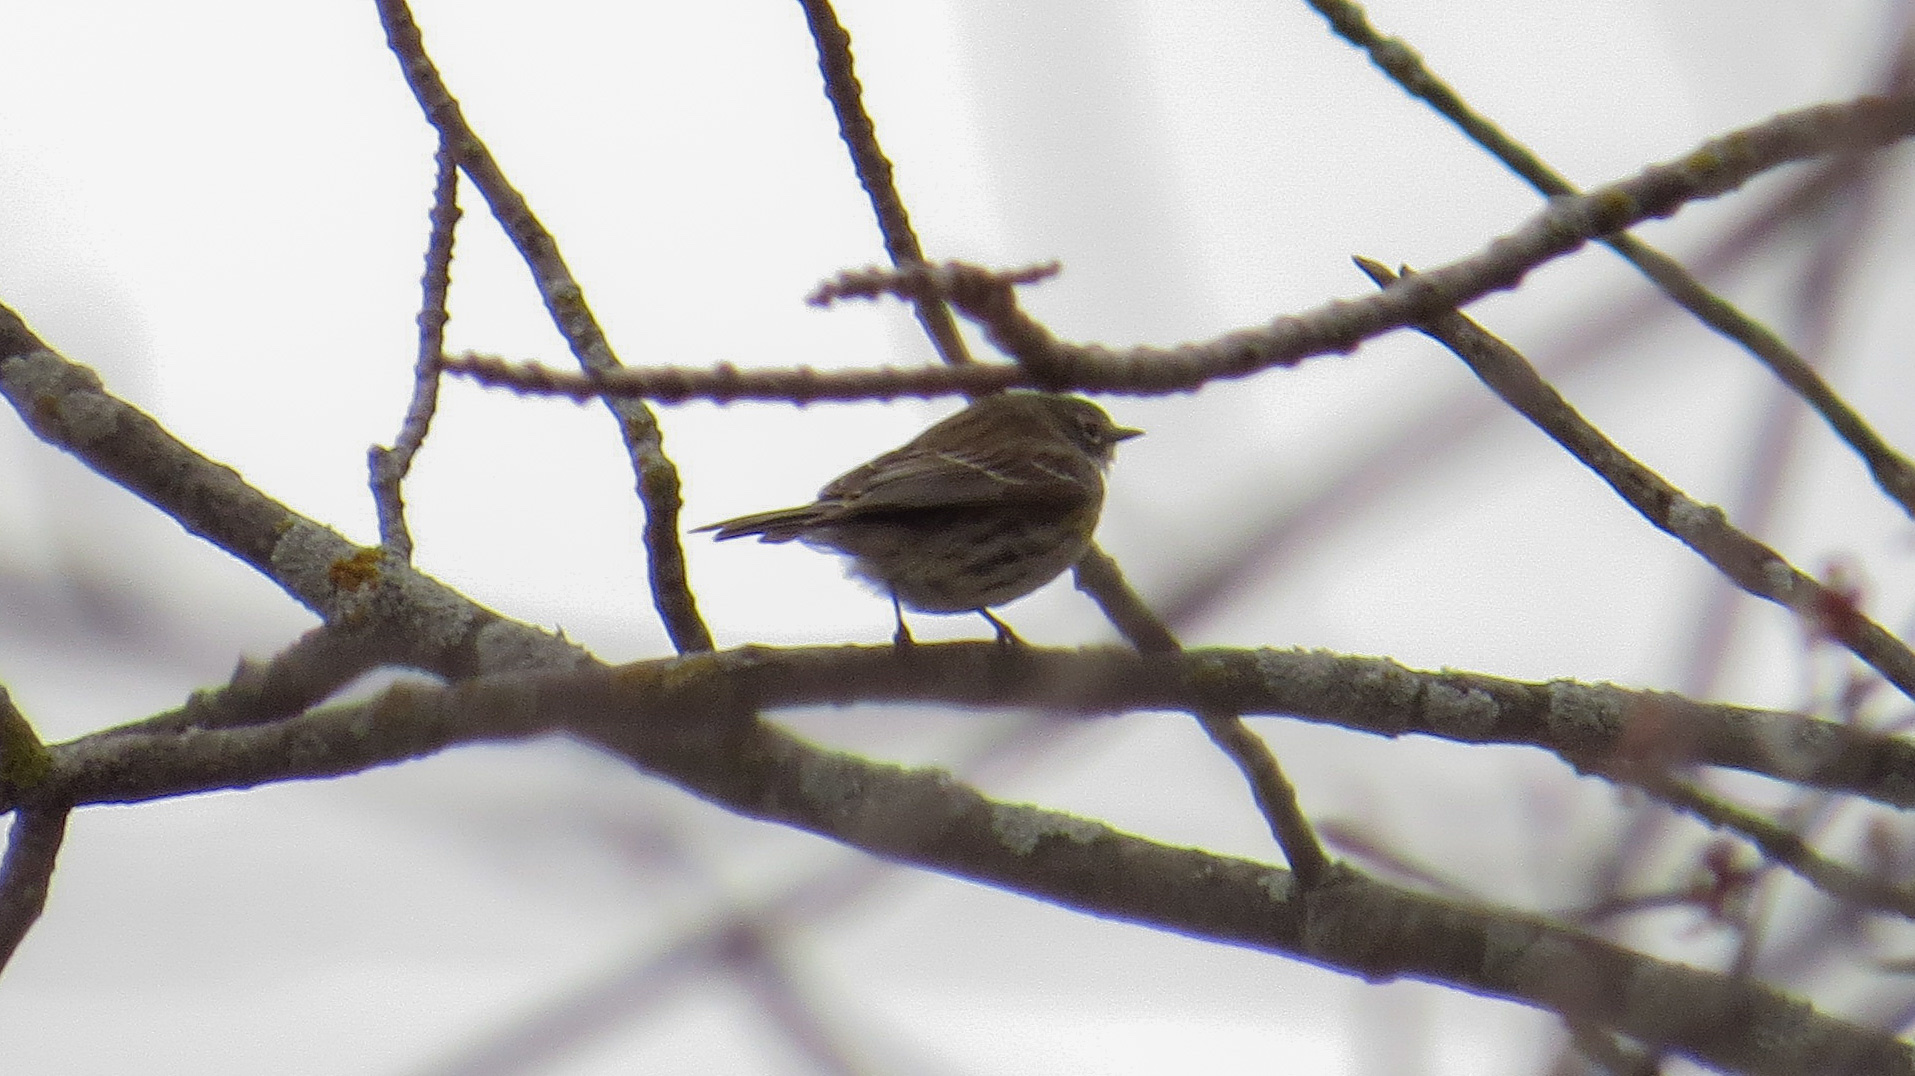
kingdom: Animalia
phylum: Chordata
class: Aves
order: Passeriformes
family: Parulidae
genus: Setophaga
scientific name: Setophaga coronata
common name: Myrtle warbler
